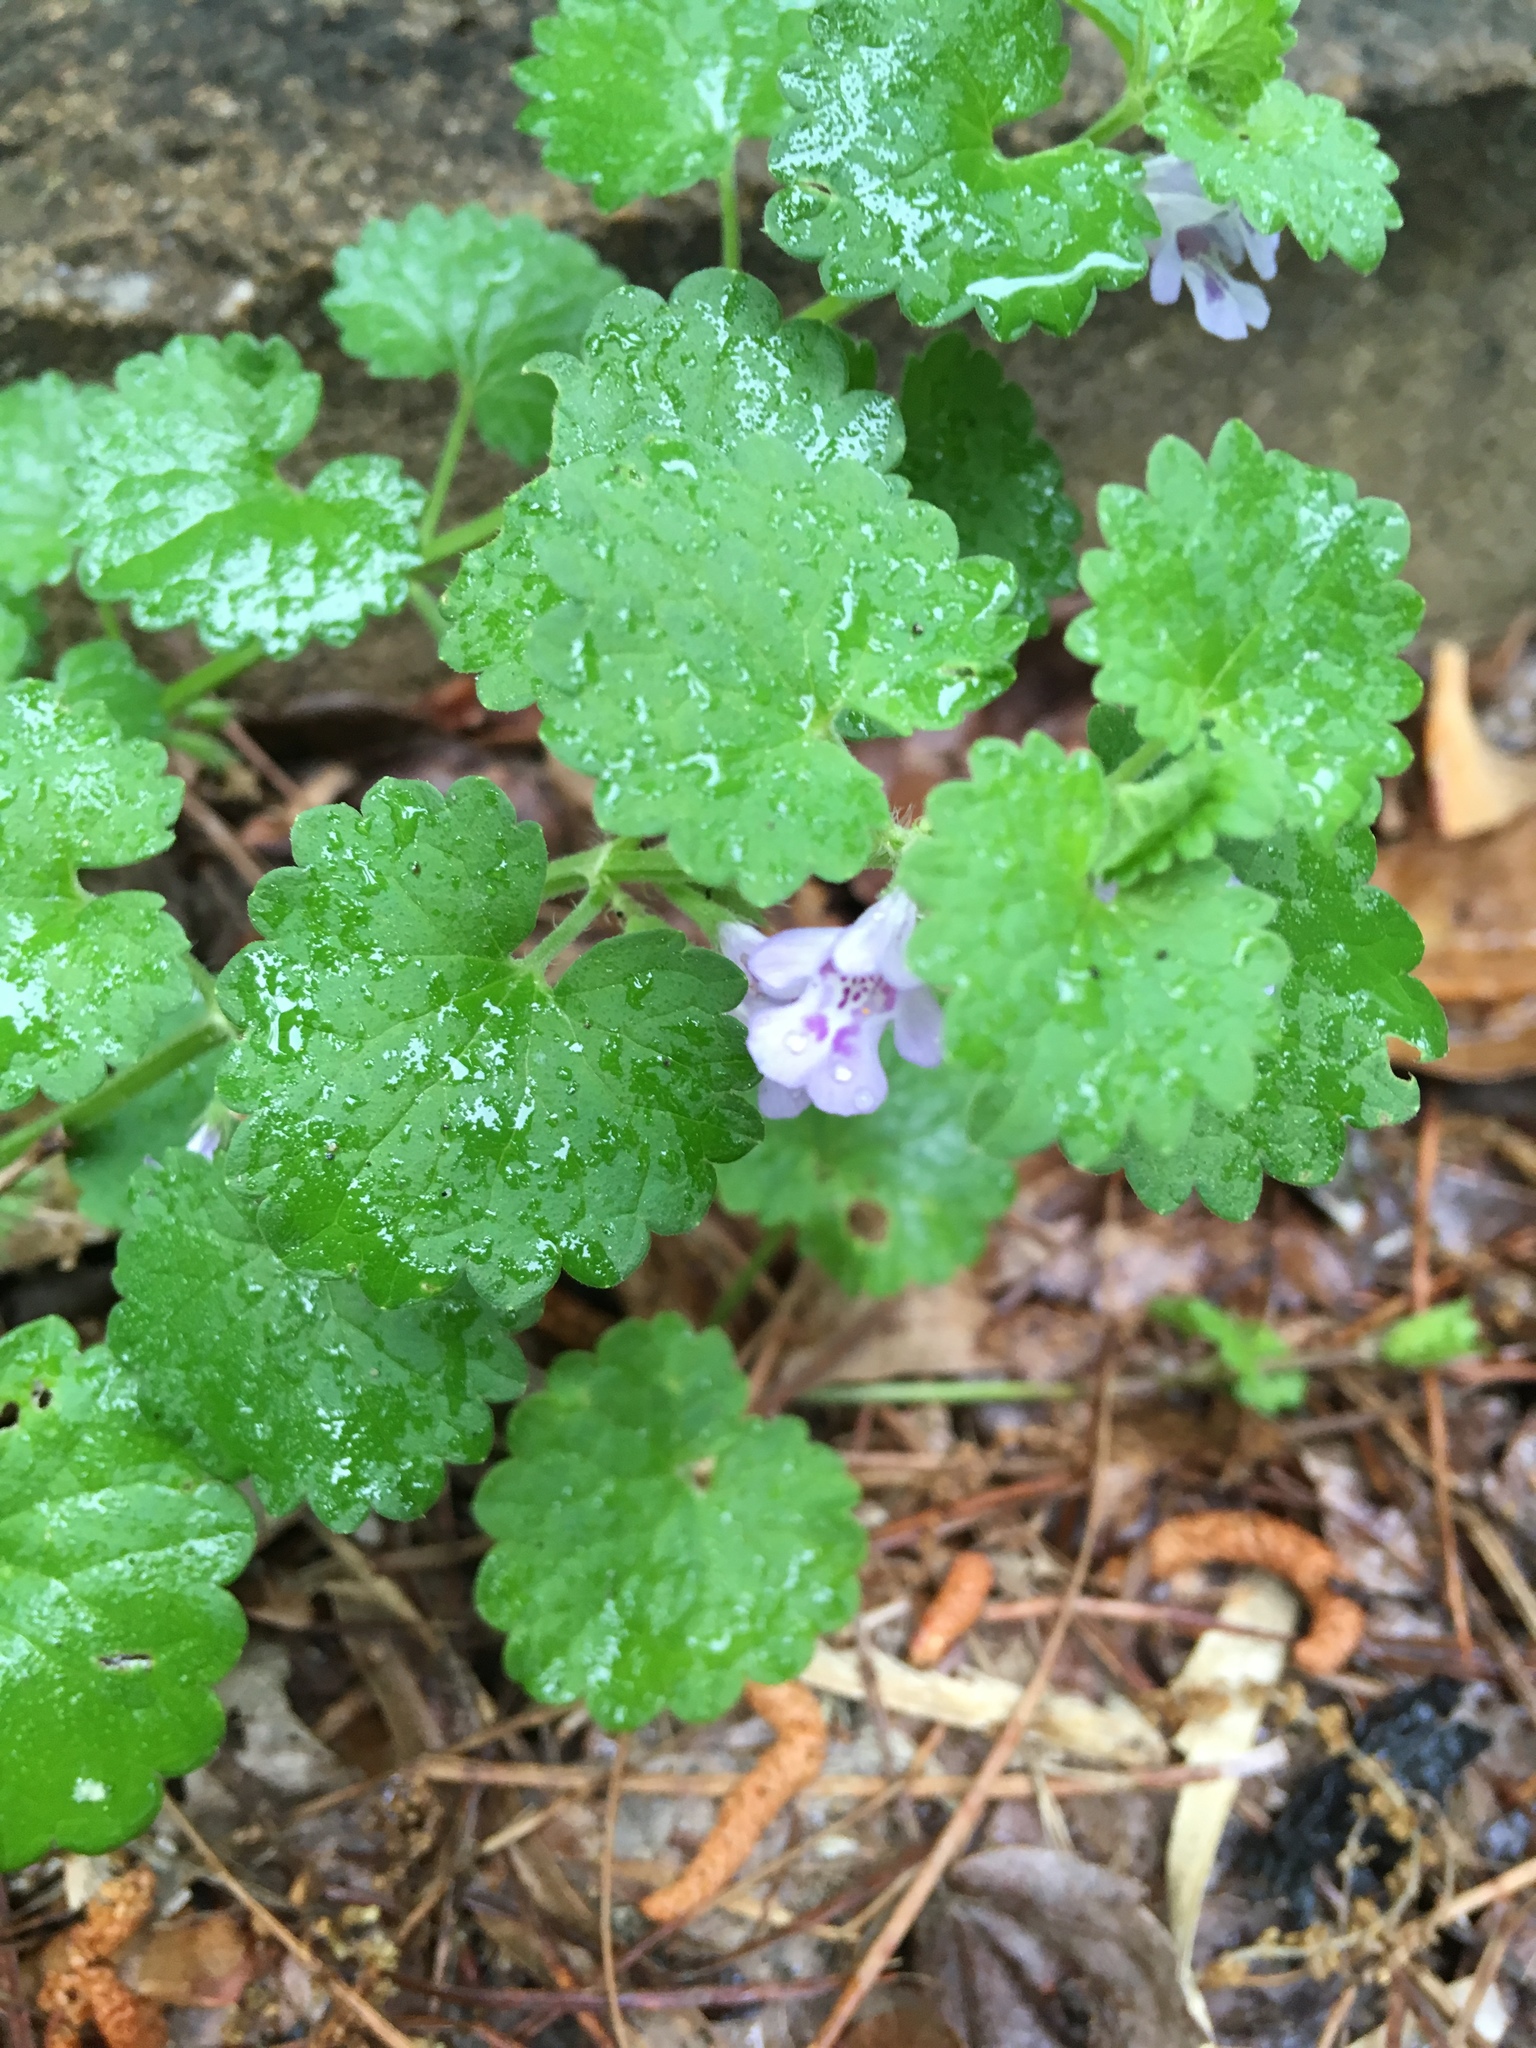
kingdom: Plantae
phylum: Tracheophyta
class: Magnoliopsida
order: Lamiales
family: Lamiaceae
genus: Glechoma
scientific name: Glechoma hederacea
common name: Ground ivy
